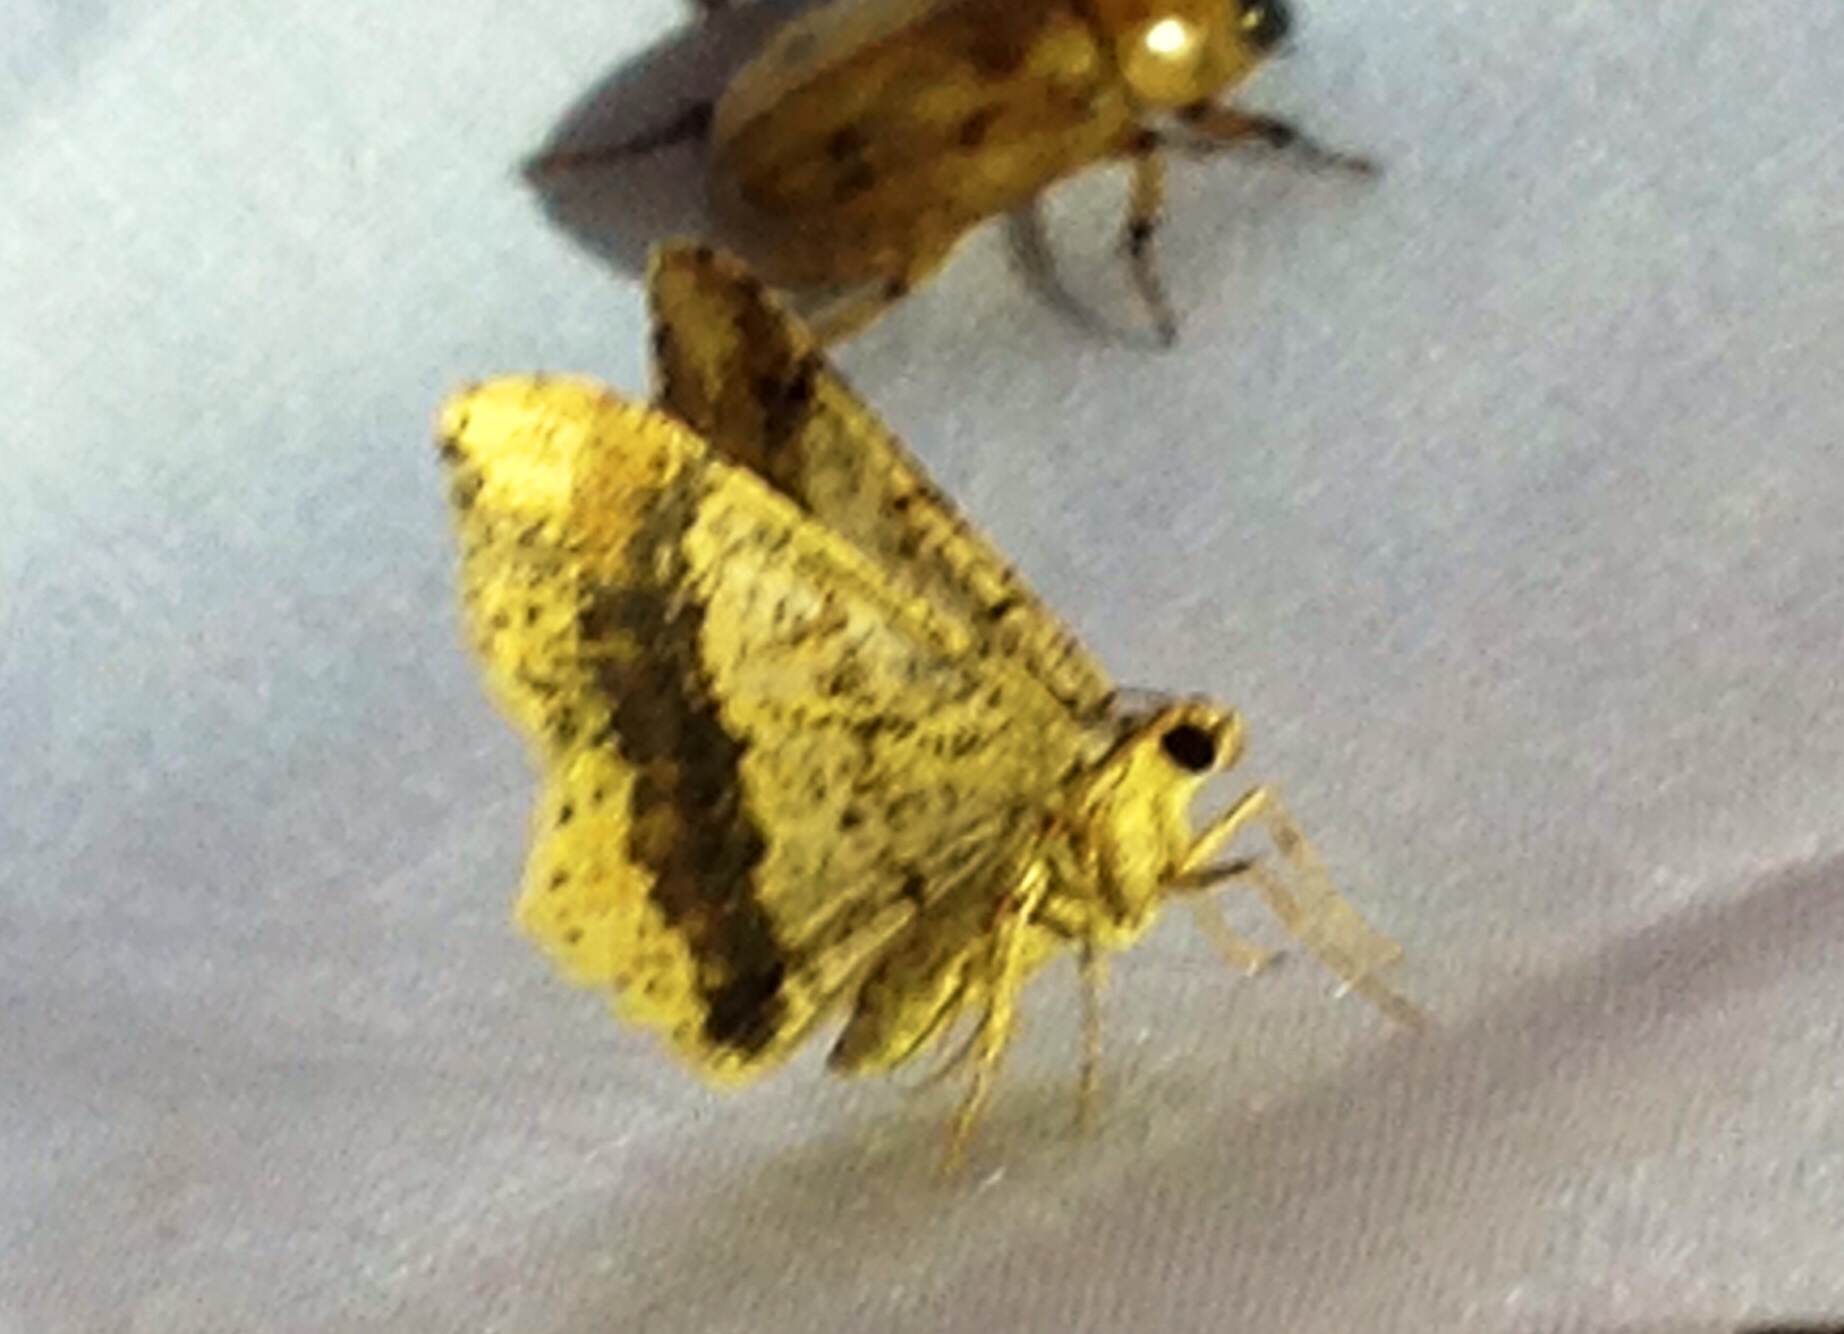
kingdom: Animalia
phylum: Arthropoda
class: Insecta
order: Lepidoptera
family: Geometridae
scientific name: Geometridae
